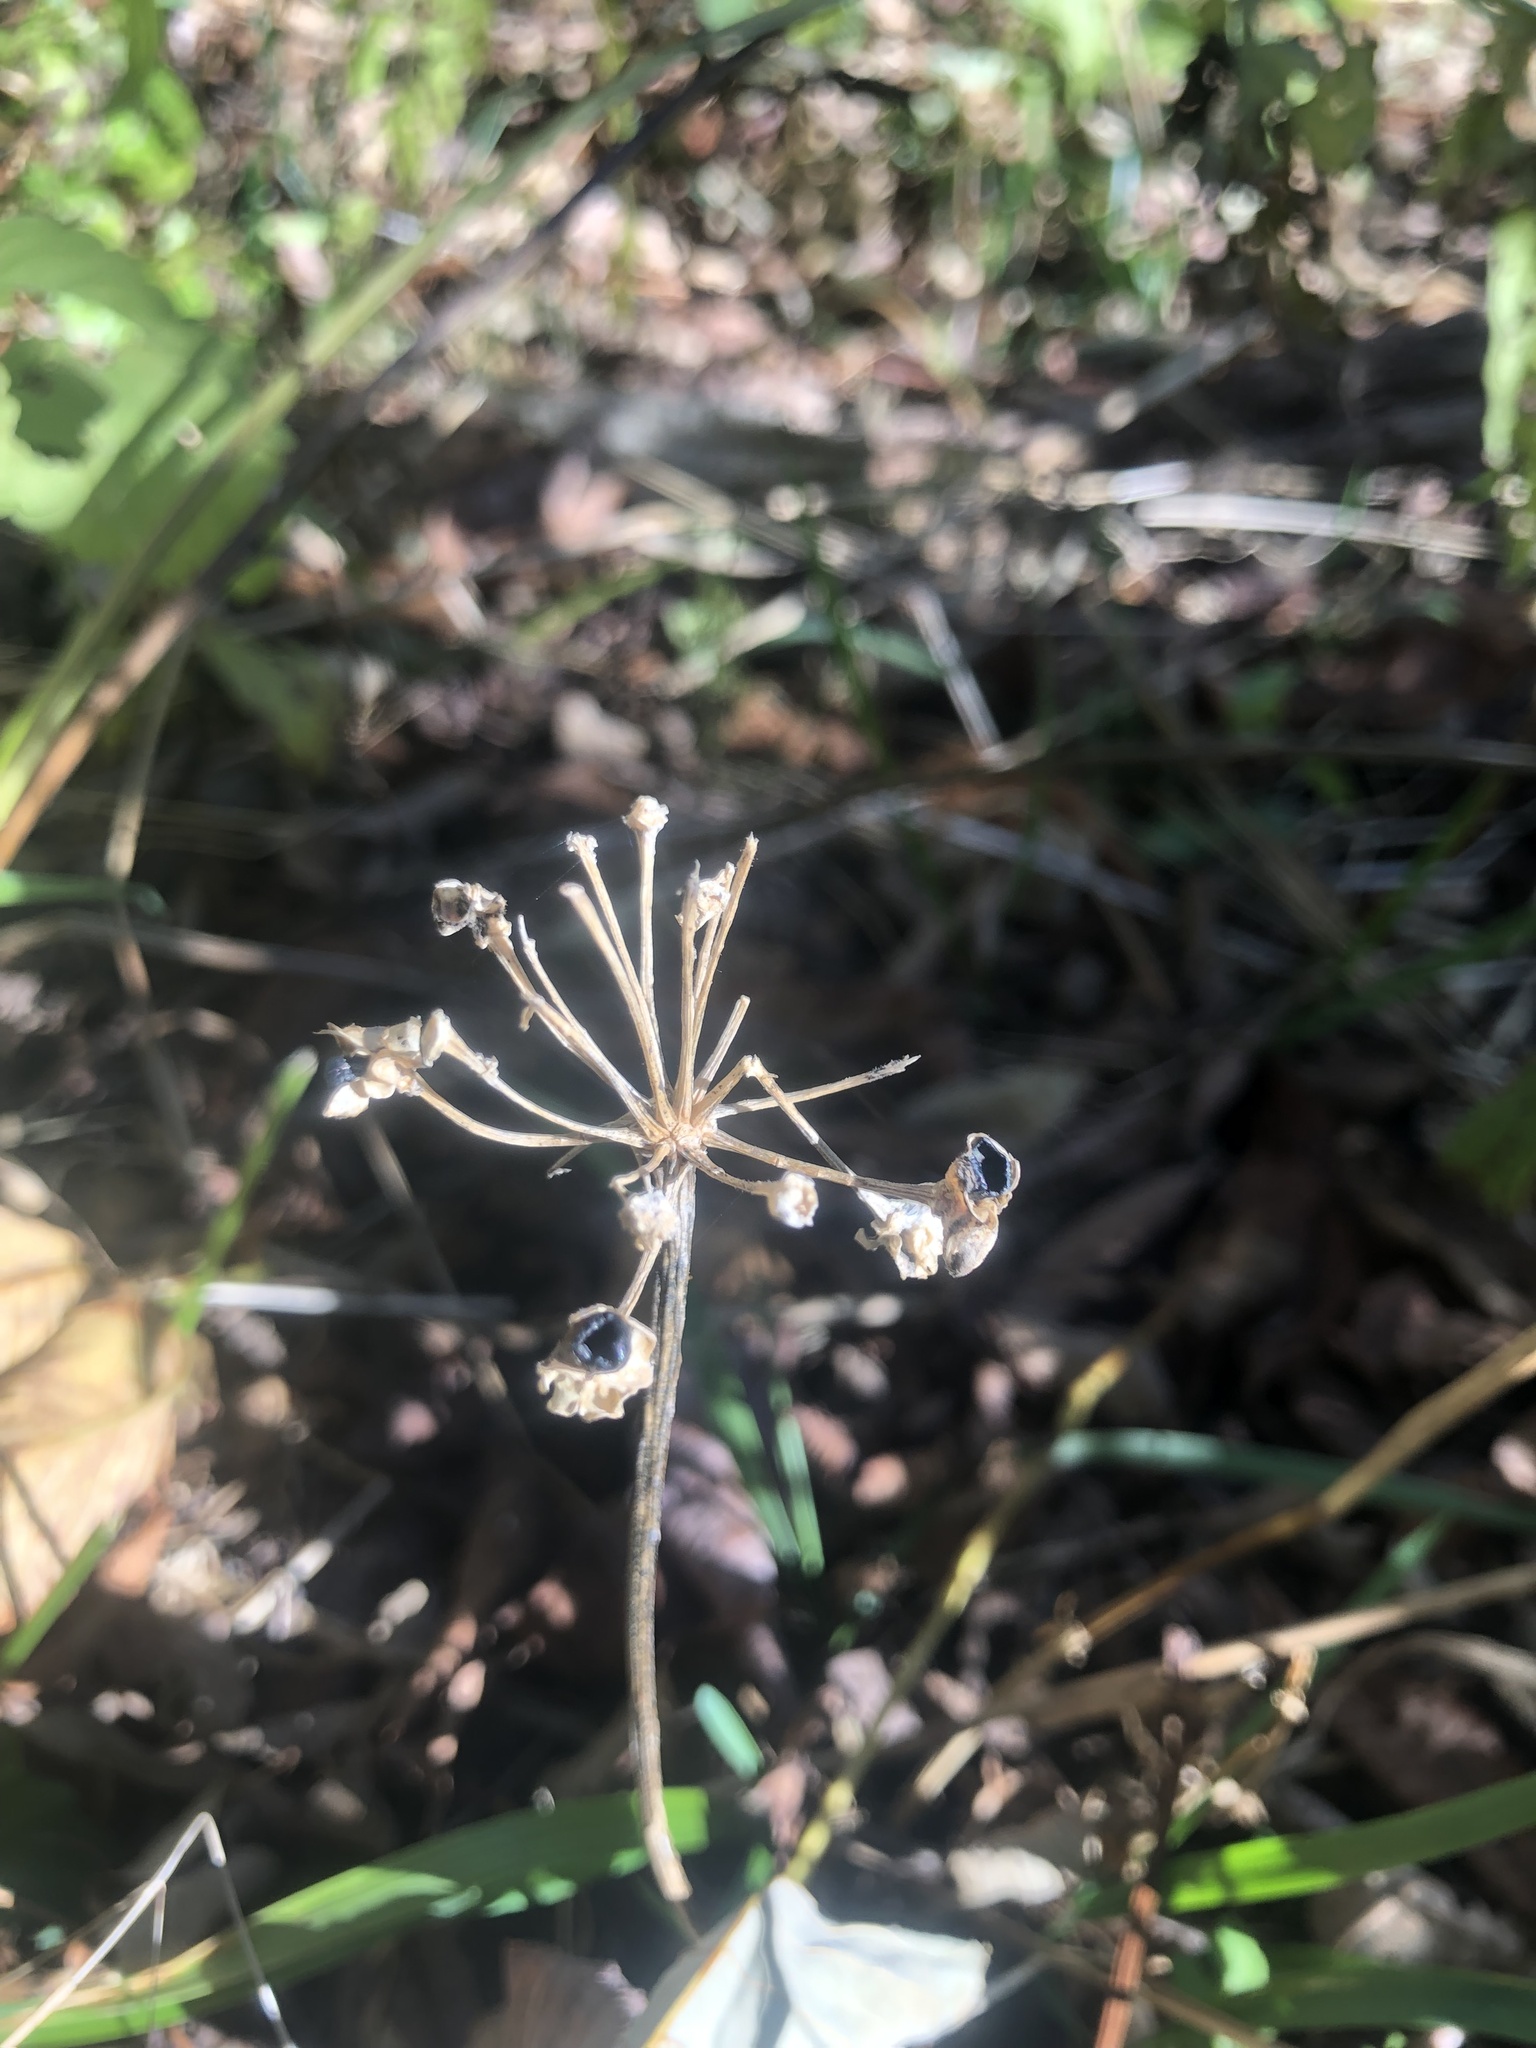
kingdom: Plantae
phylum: Tracheophyta
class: Liliopsida
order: Asparagales
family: Amaryllidaceae
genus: Allium
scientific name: Allium tricoccum
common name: Ramp
